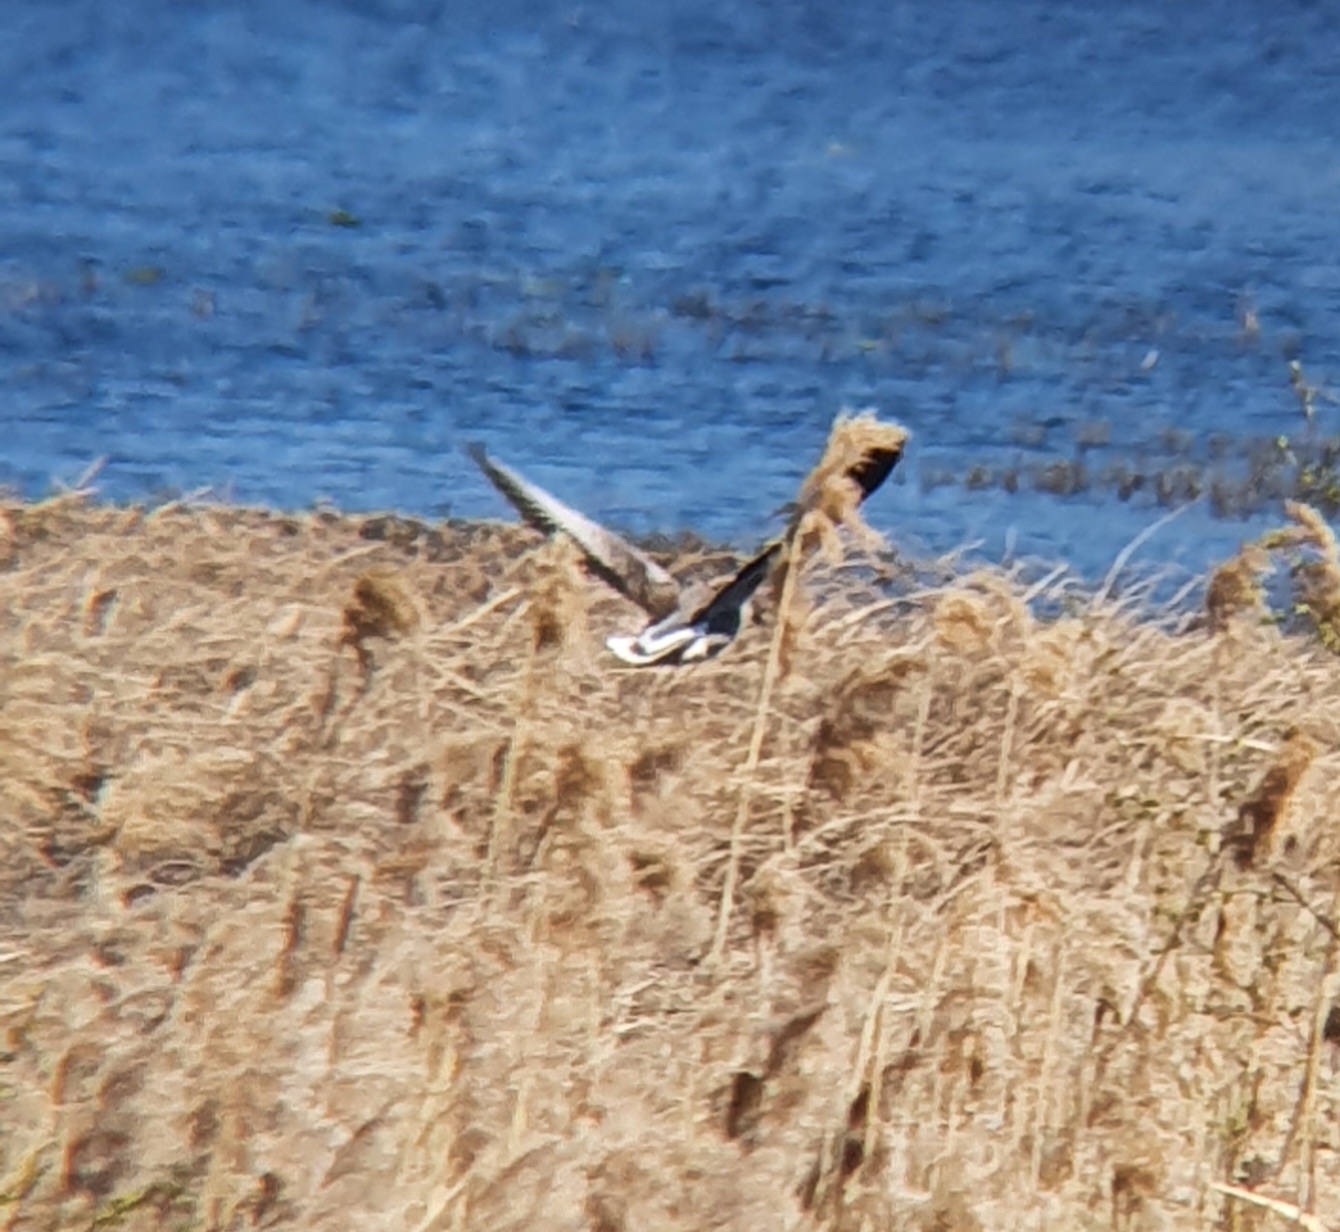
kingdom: Animalia
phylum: Chordata
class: Aves
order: Anseriformes
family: Anatidae
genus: Anser
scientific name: Anser anser
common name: Greylag goose
